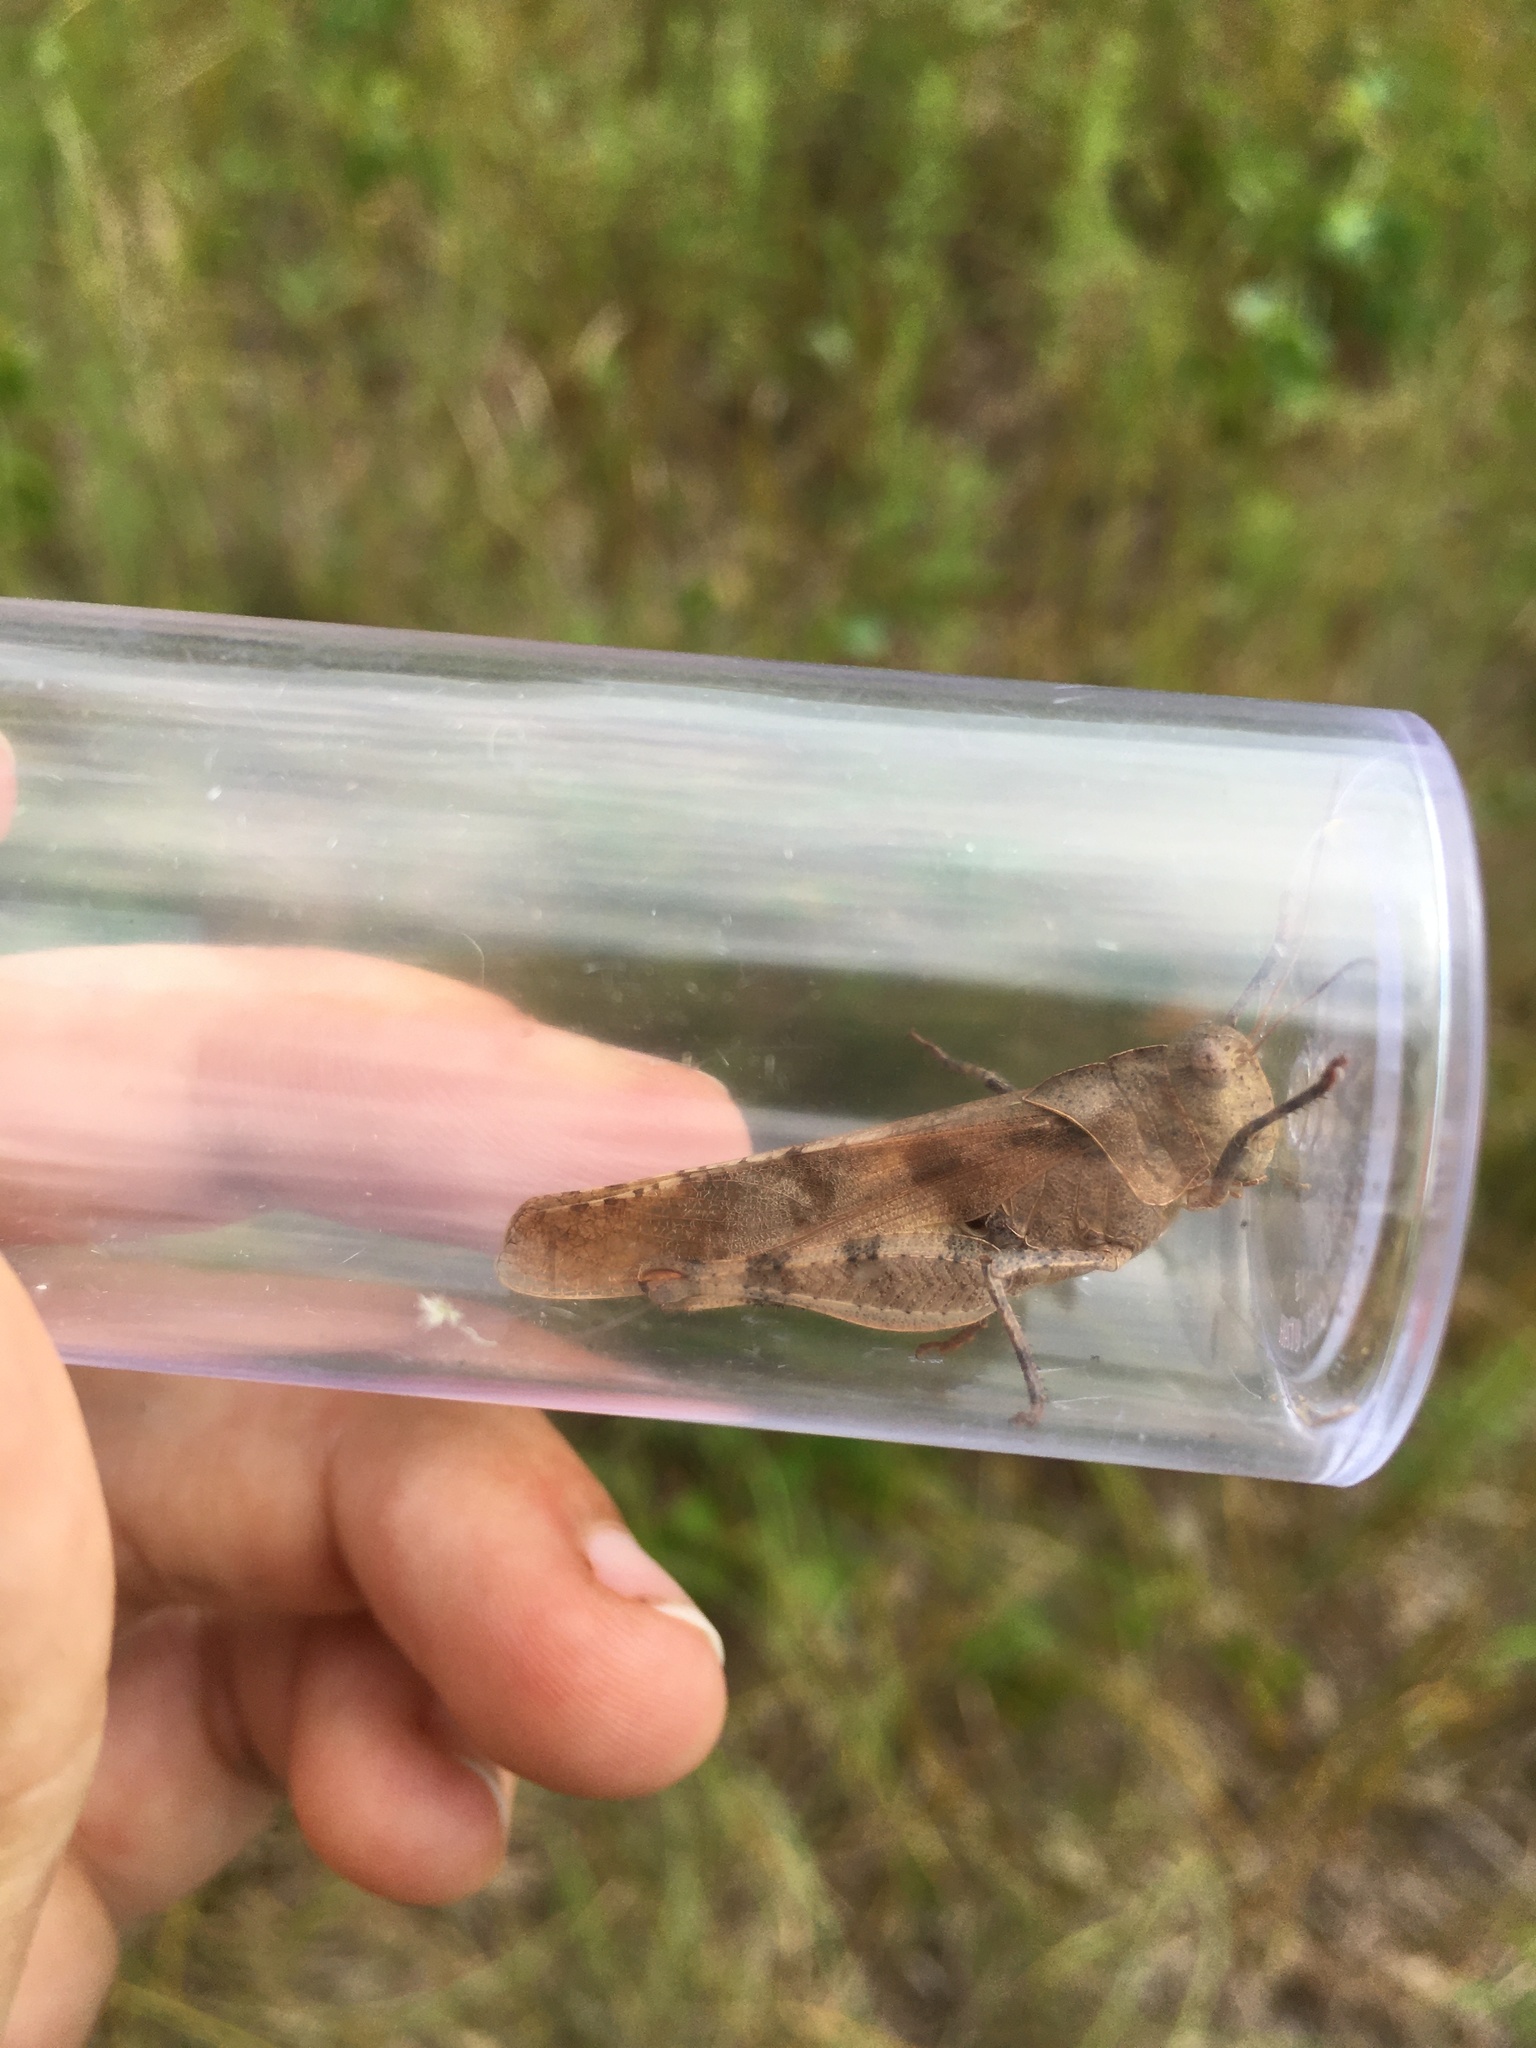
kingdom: Animalia
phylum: Arthropoda
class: Insecta
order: Orthoptera
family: Acrididae
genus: Spharagemon
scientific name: Spharagemon bolli
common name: Boll's grasshopper
